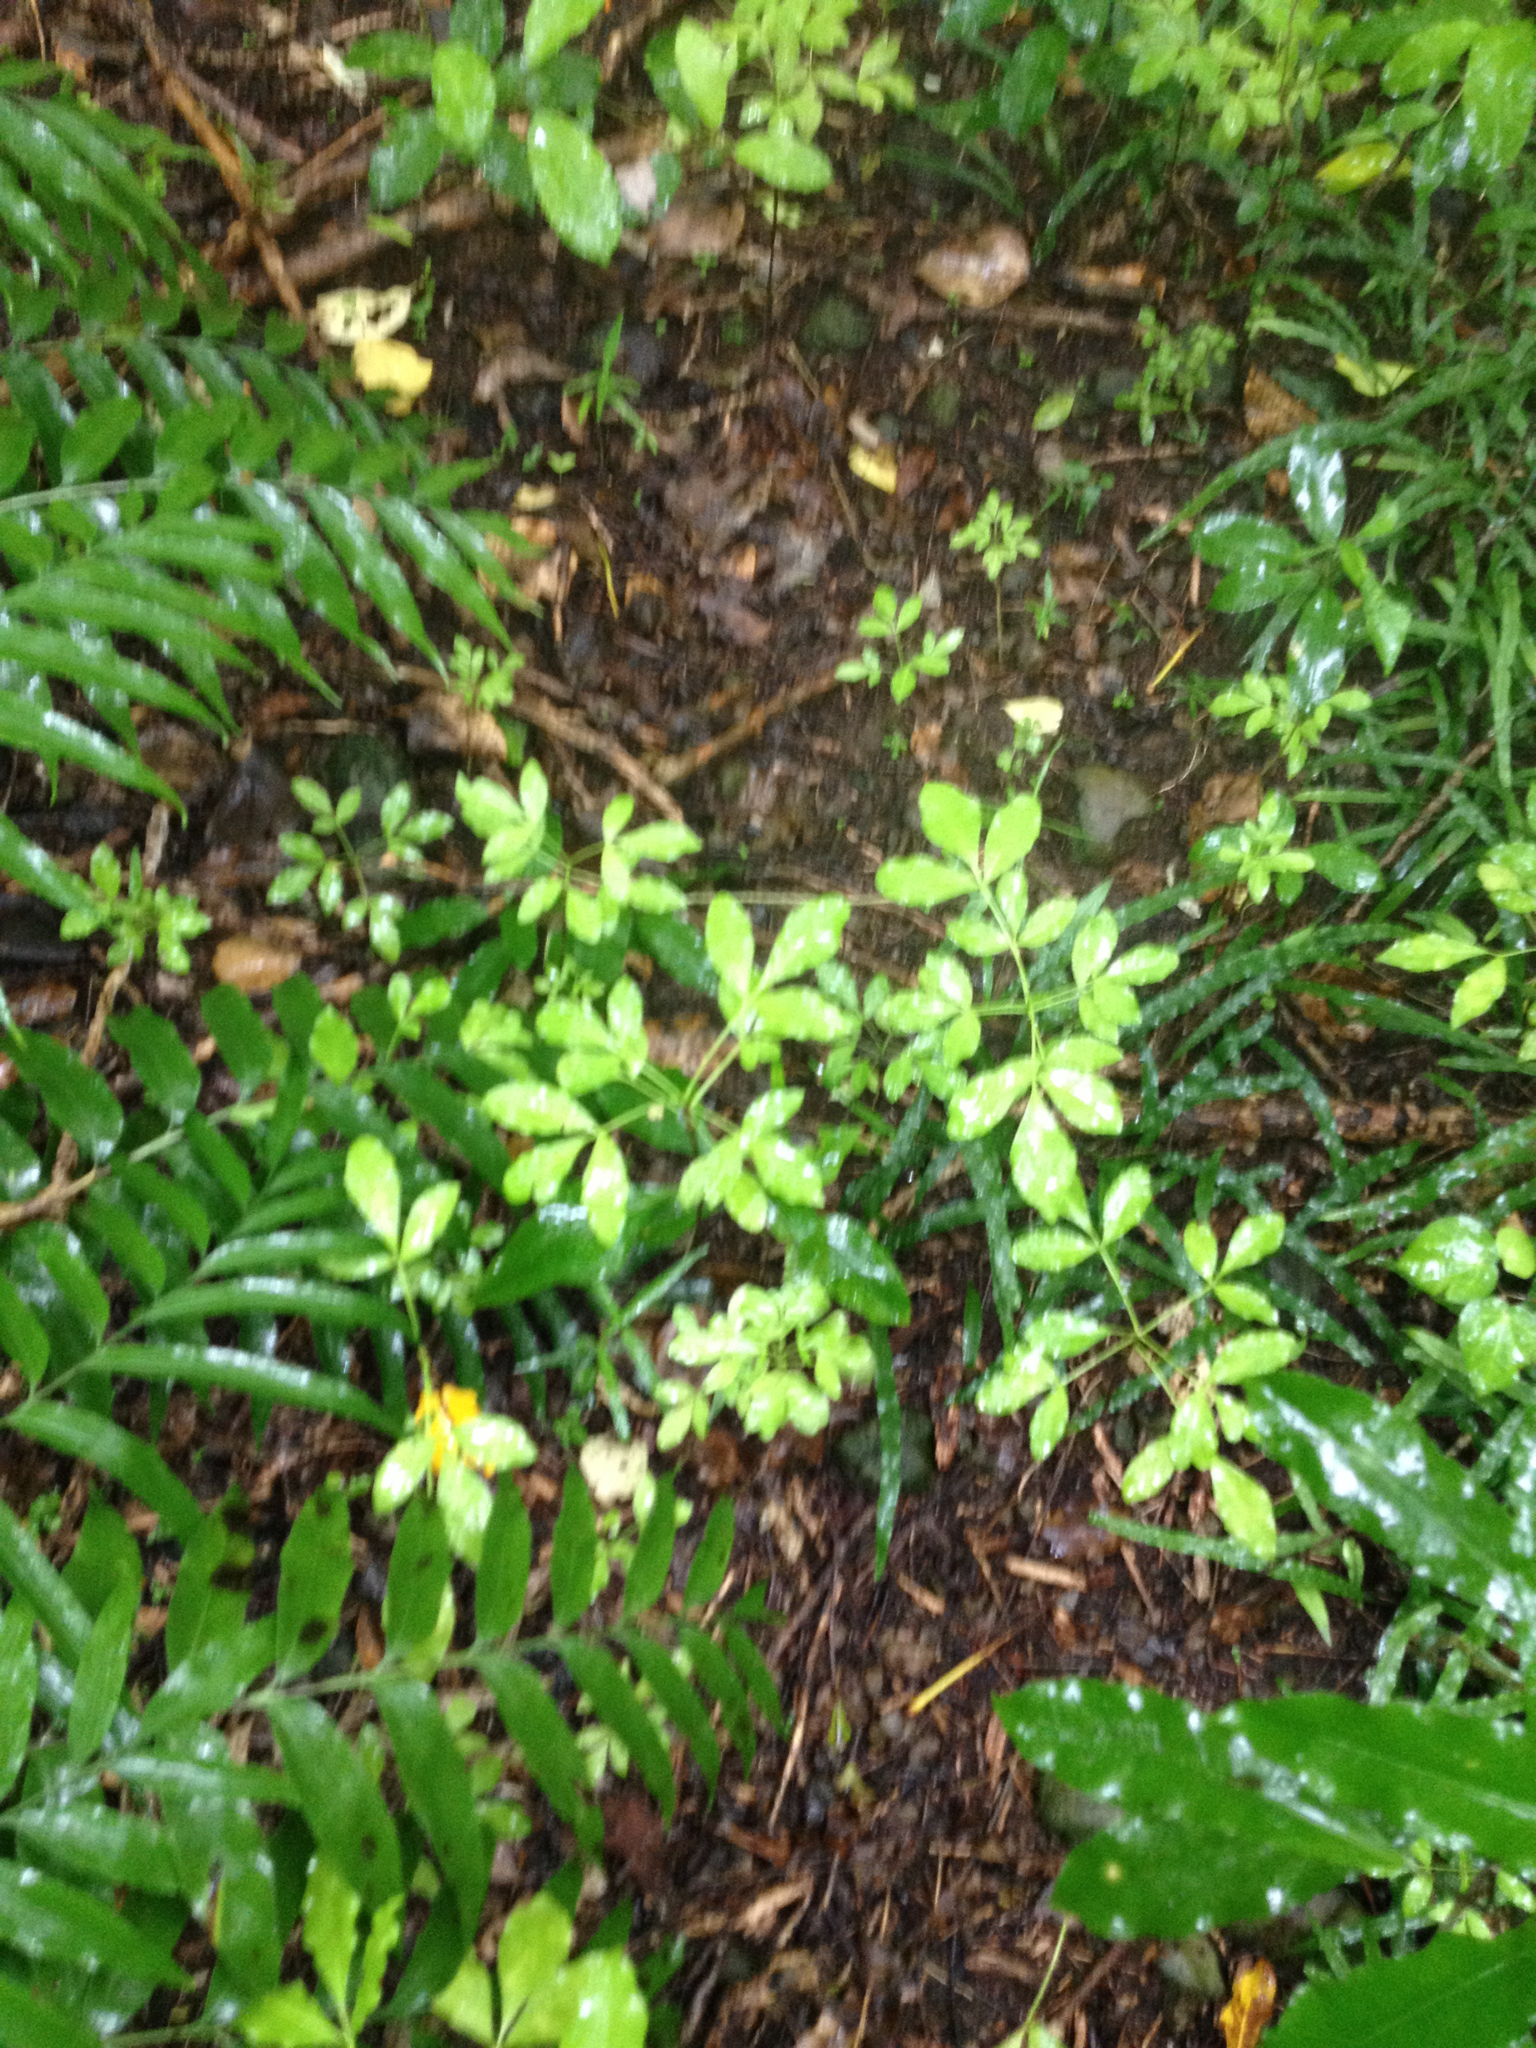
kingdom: Plantae
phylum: Tracheophyta
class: Magnoliopsida
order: Sapindales
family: Rutaceae
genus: Melicope
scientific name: Melicope ternata
